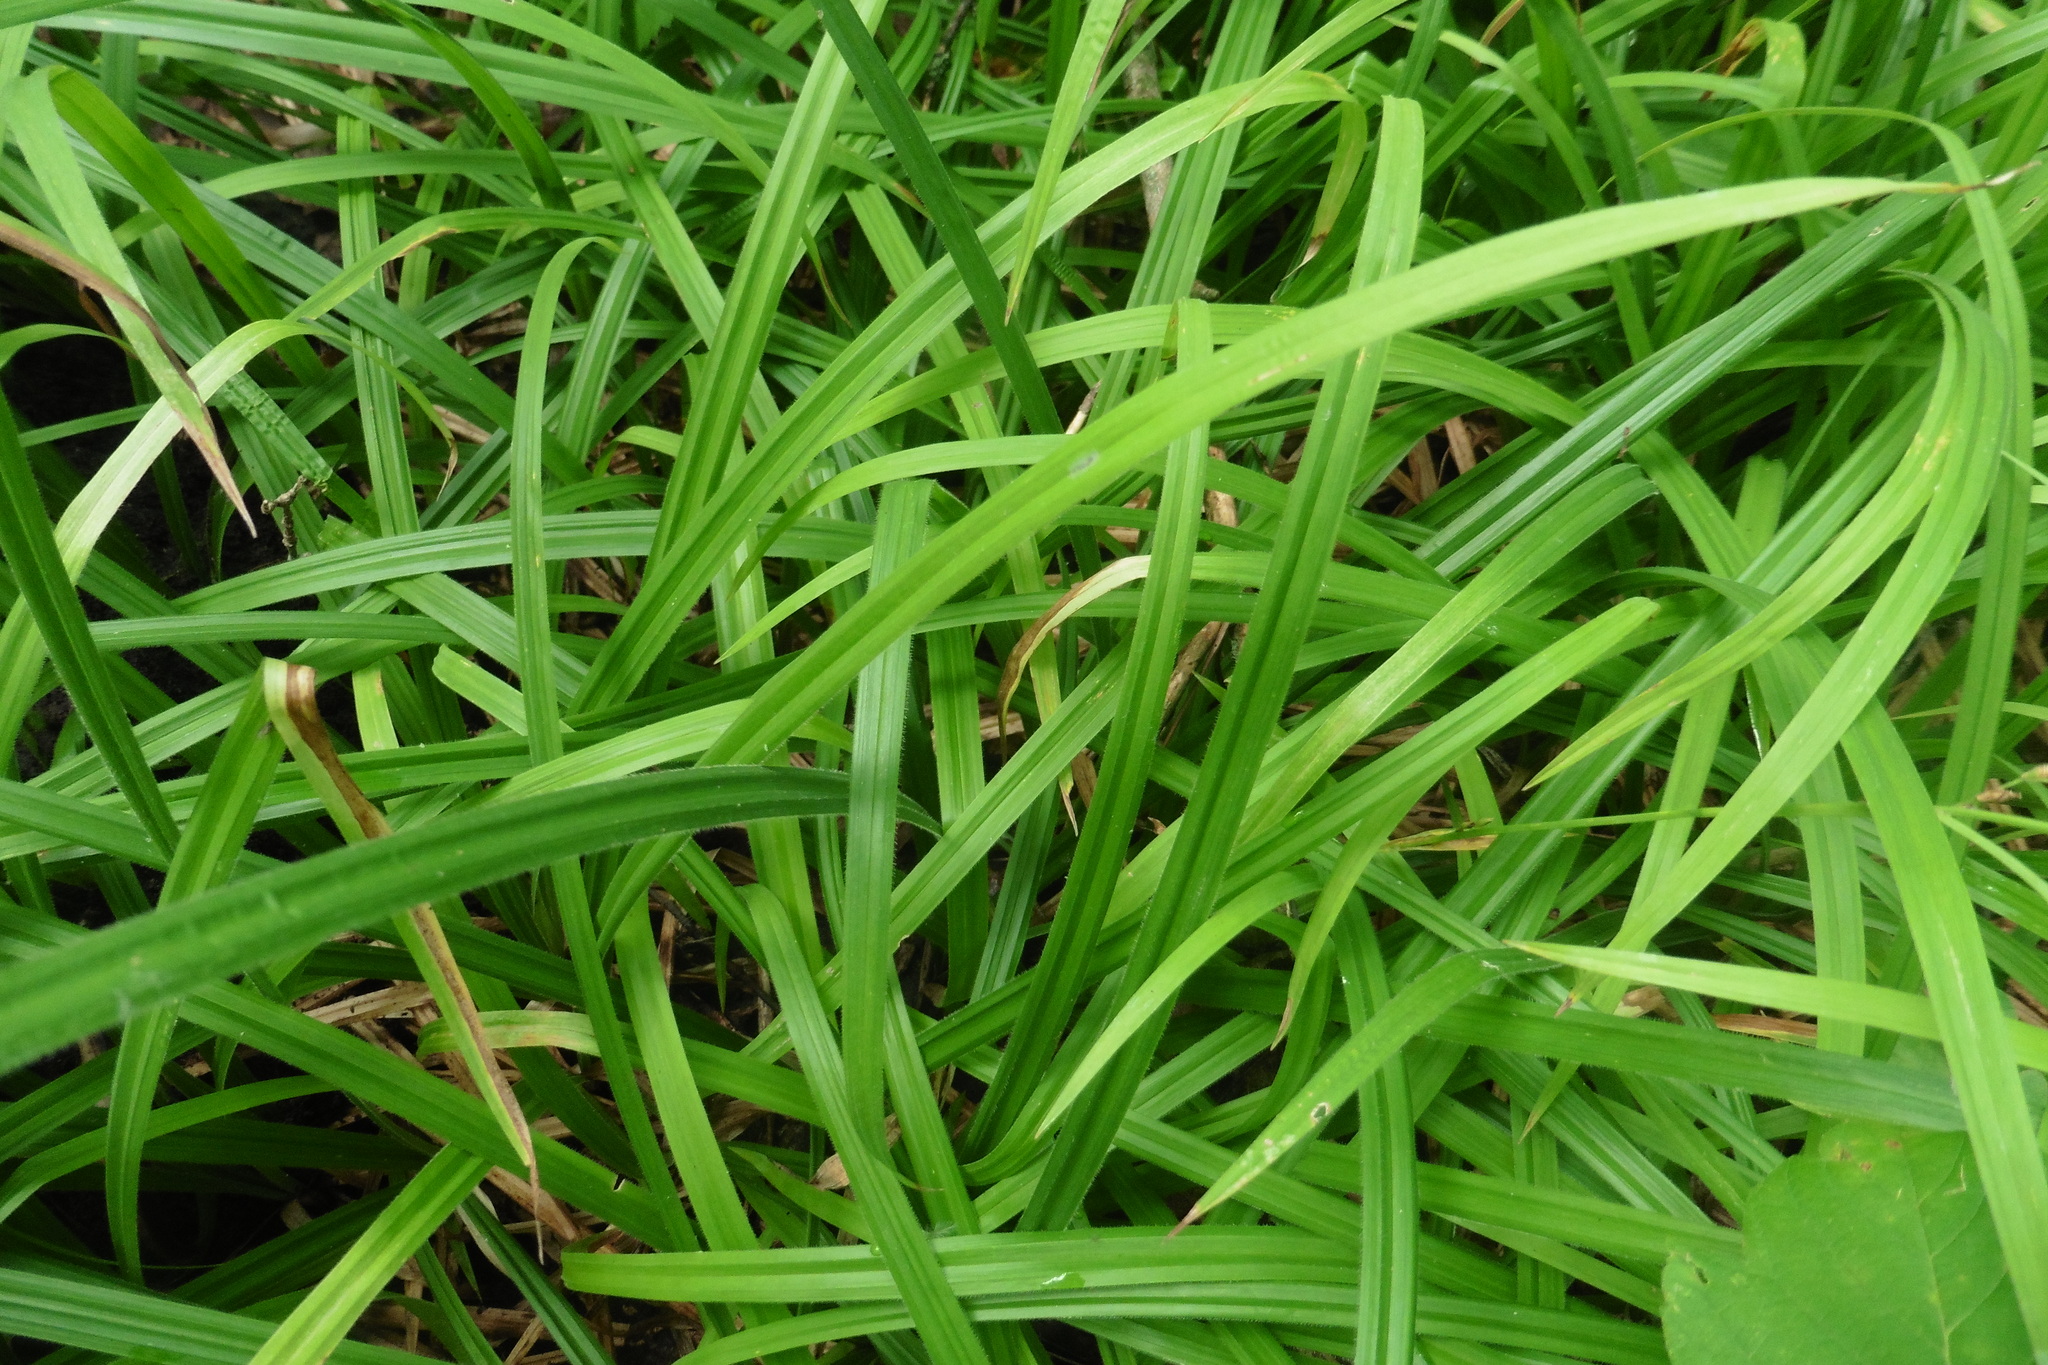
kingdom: Plantae
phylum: Tracheophyta
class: Liliopsida
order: Poales
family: Cyperaceae
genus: Carex
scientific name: Carex pilosa
